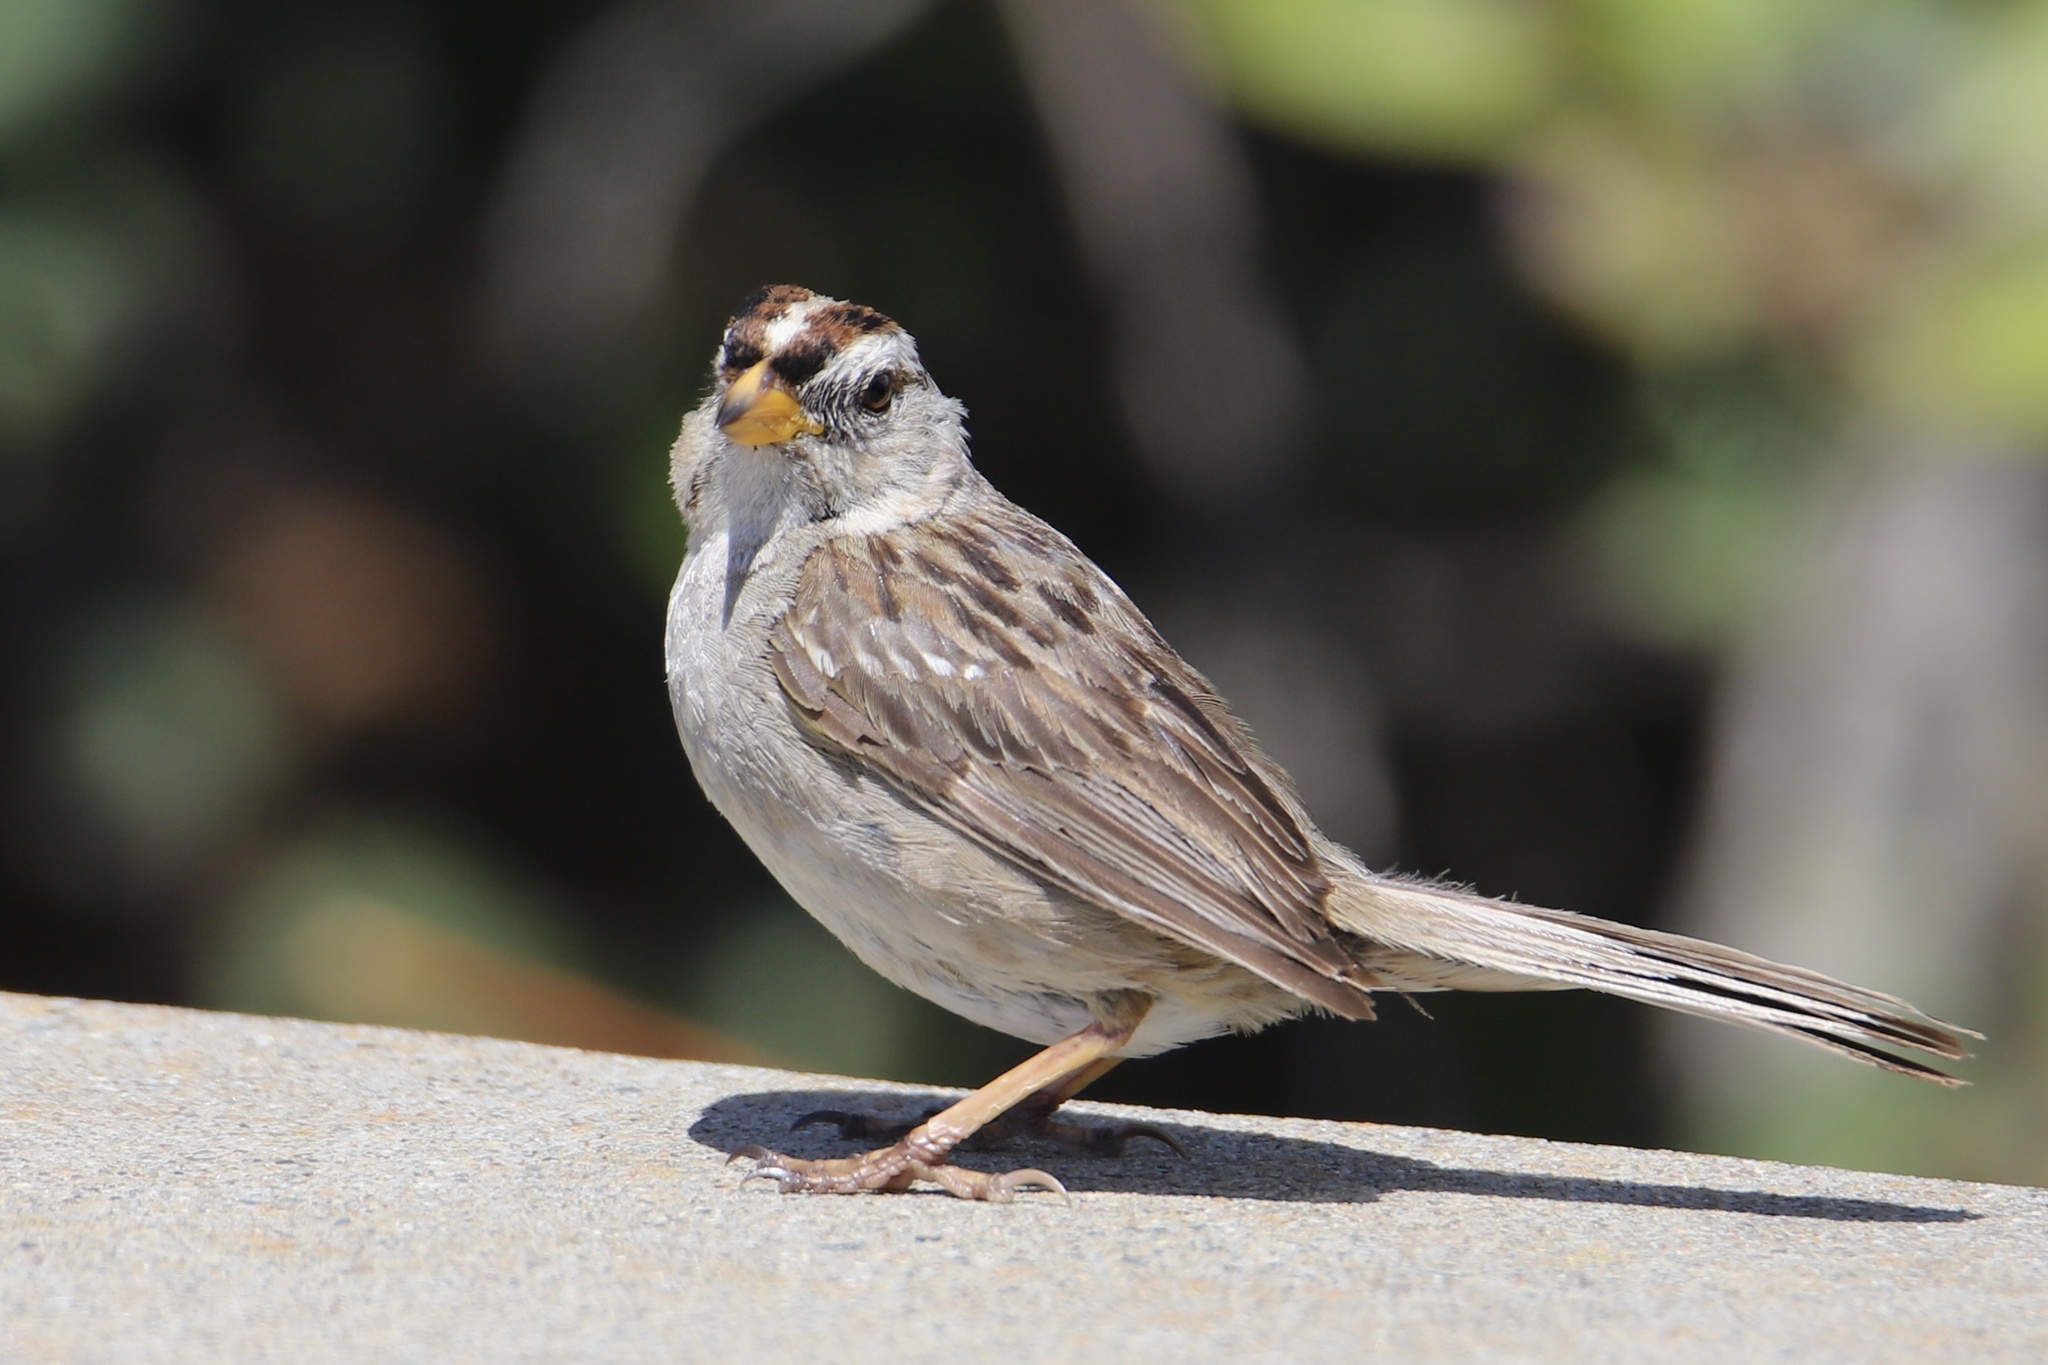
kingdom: Animalia
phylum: Chordata
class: Aves
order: Passeriformes
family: Passerellidae
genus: Zonotrichia
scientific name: Zonotrichia leucophrys
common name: White-crowned sparrow
